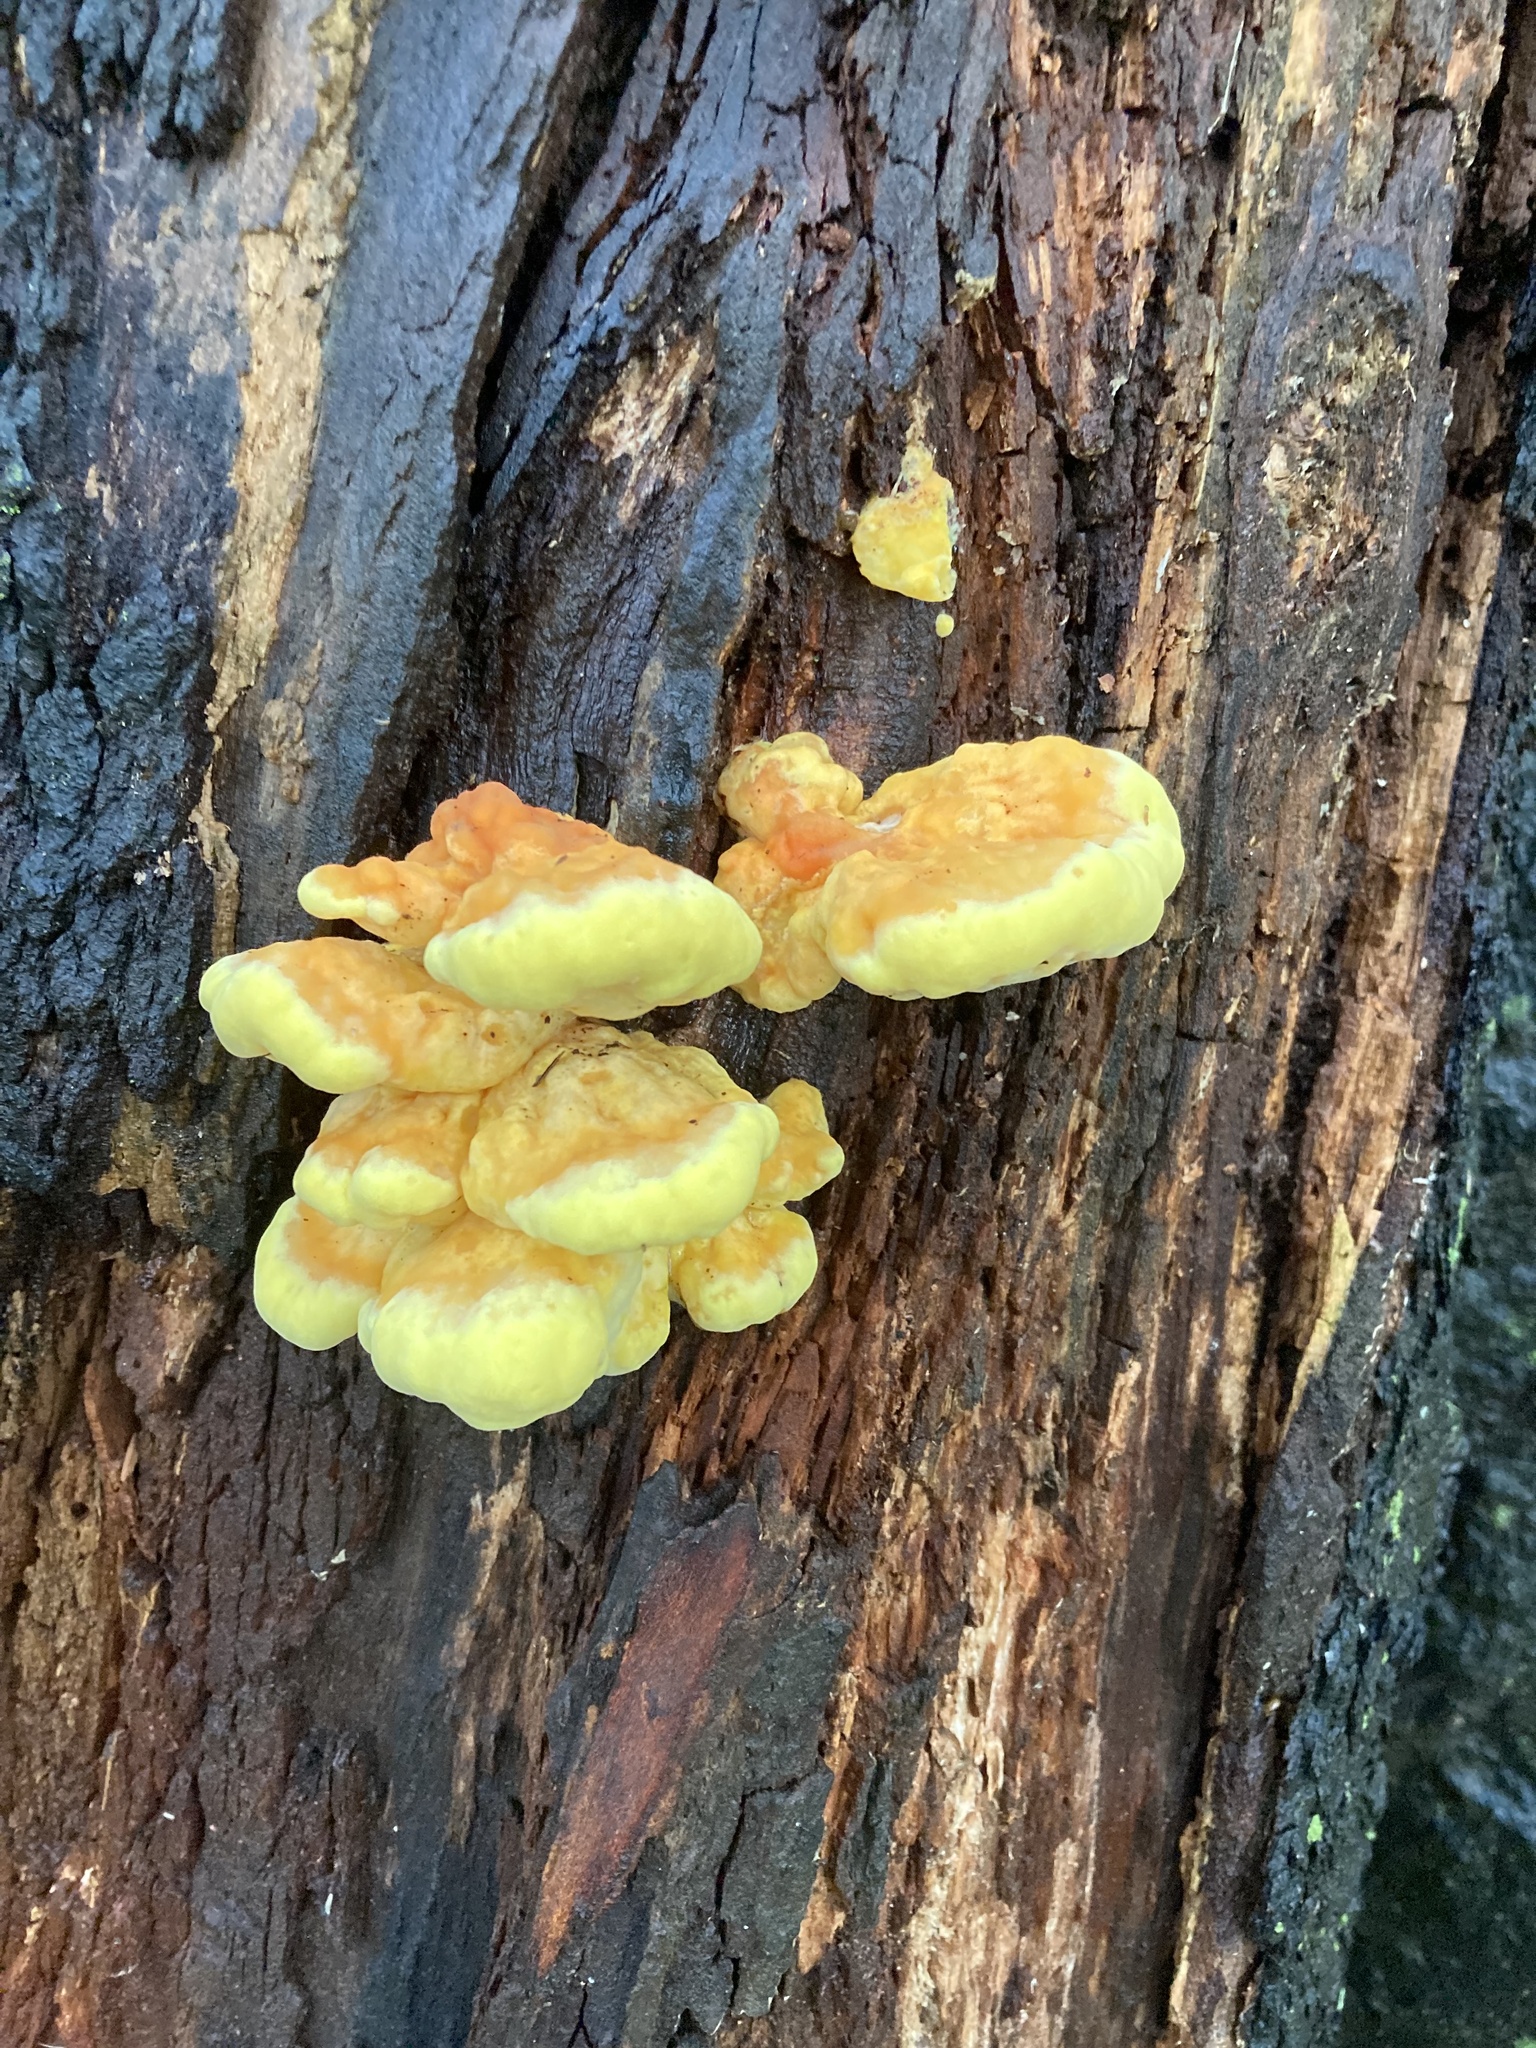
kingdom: Fungi
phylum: Basidiomycota
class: Agaricomycetes
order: Polyporales
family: Laetiporaceae
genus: Laetiporus
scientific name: Laetiporus sulphureus
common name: Chicken of the woods
